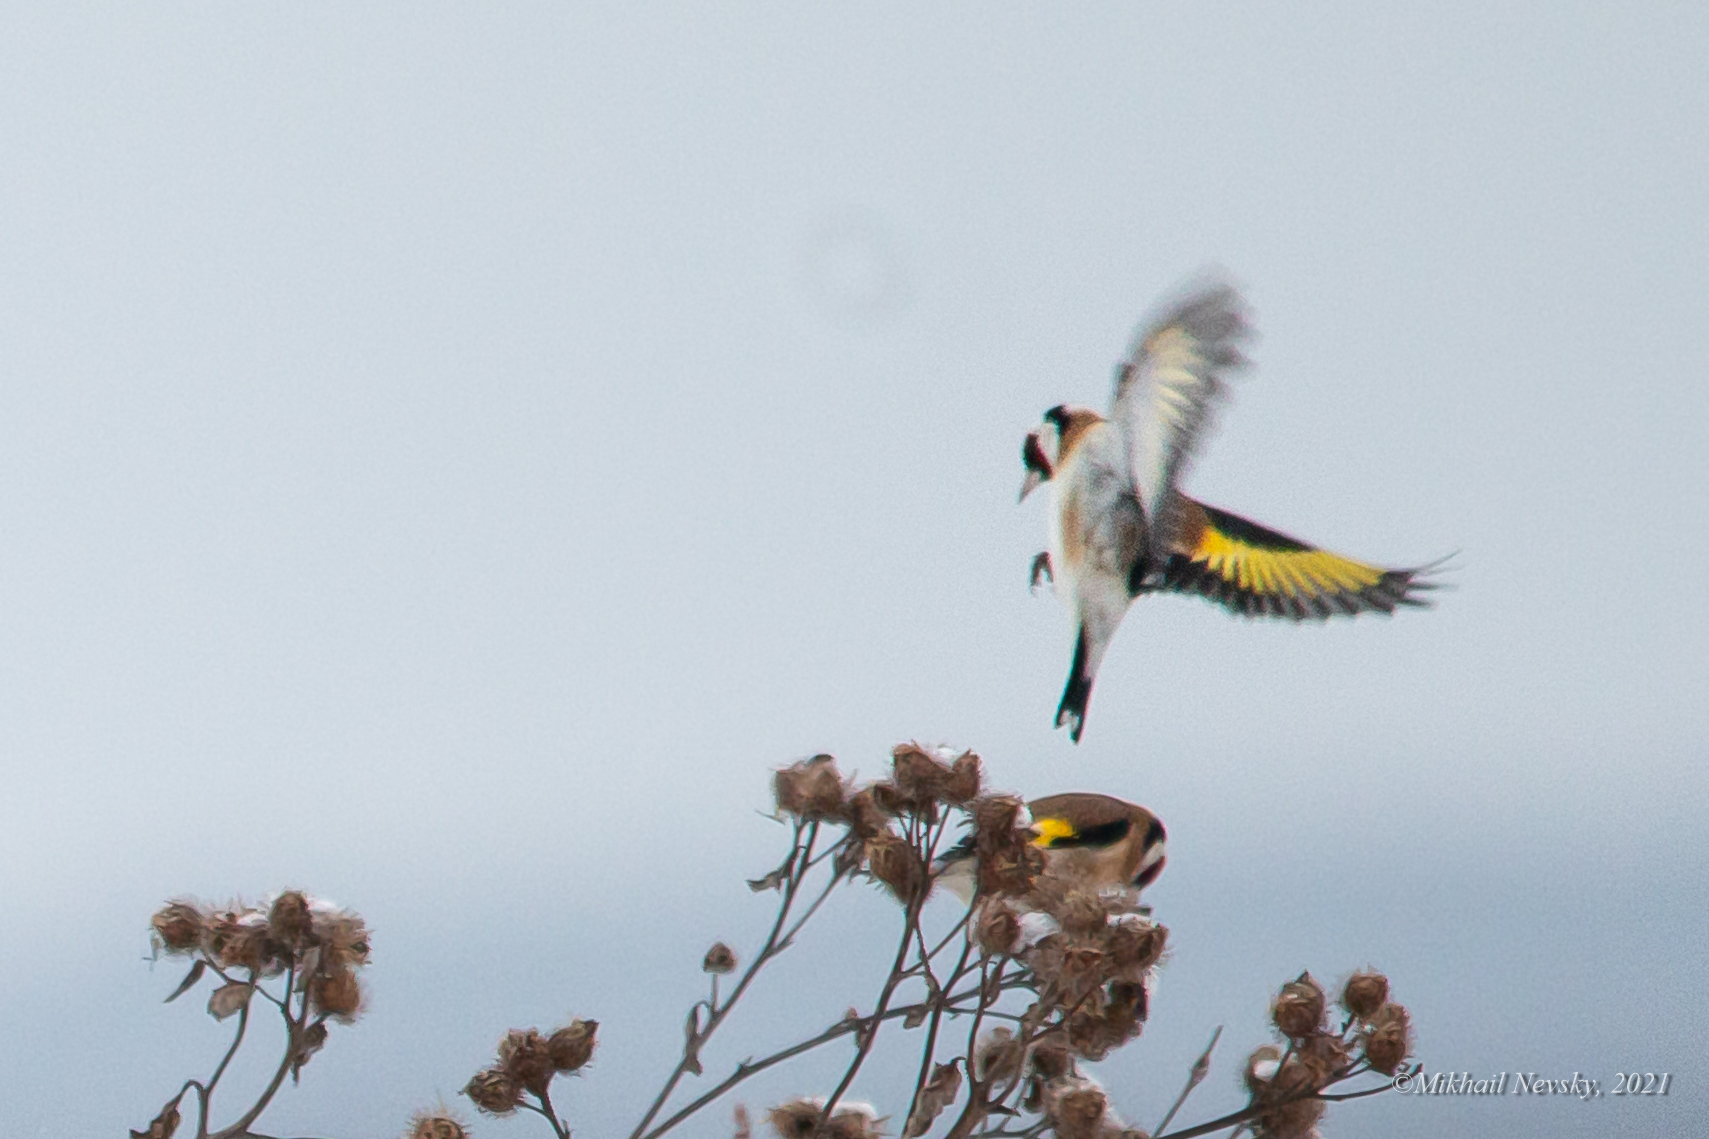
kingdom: Animalia
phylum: Chordata
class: Aves
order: Passeriformes
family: Fringillidae
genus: Carduelis
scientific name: Carduelis carduelis
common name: European goldfinch
